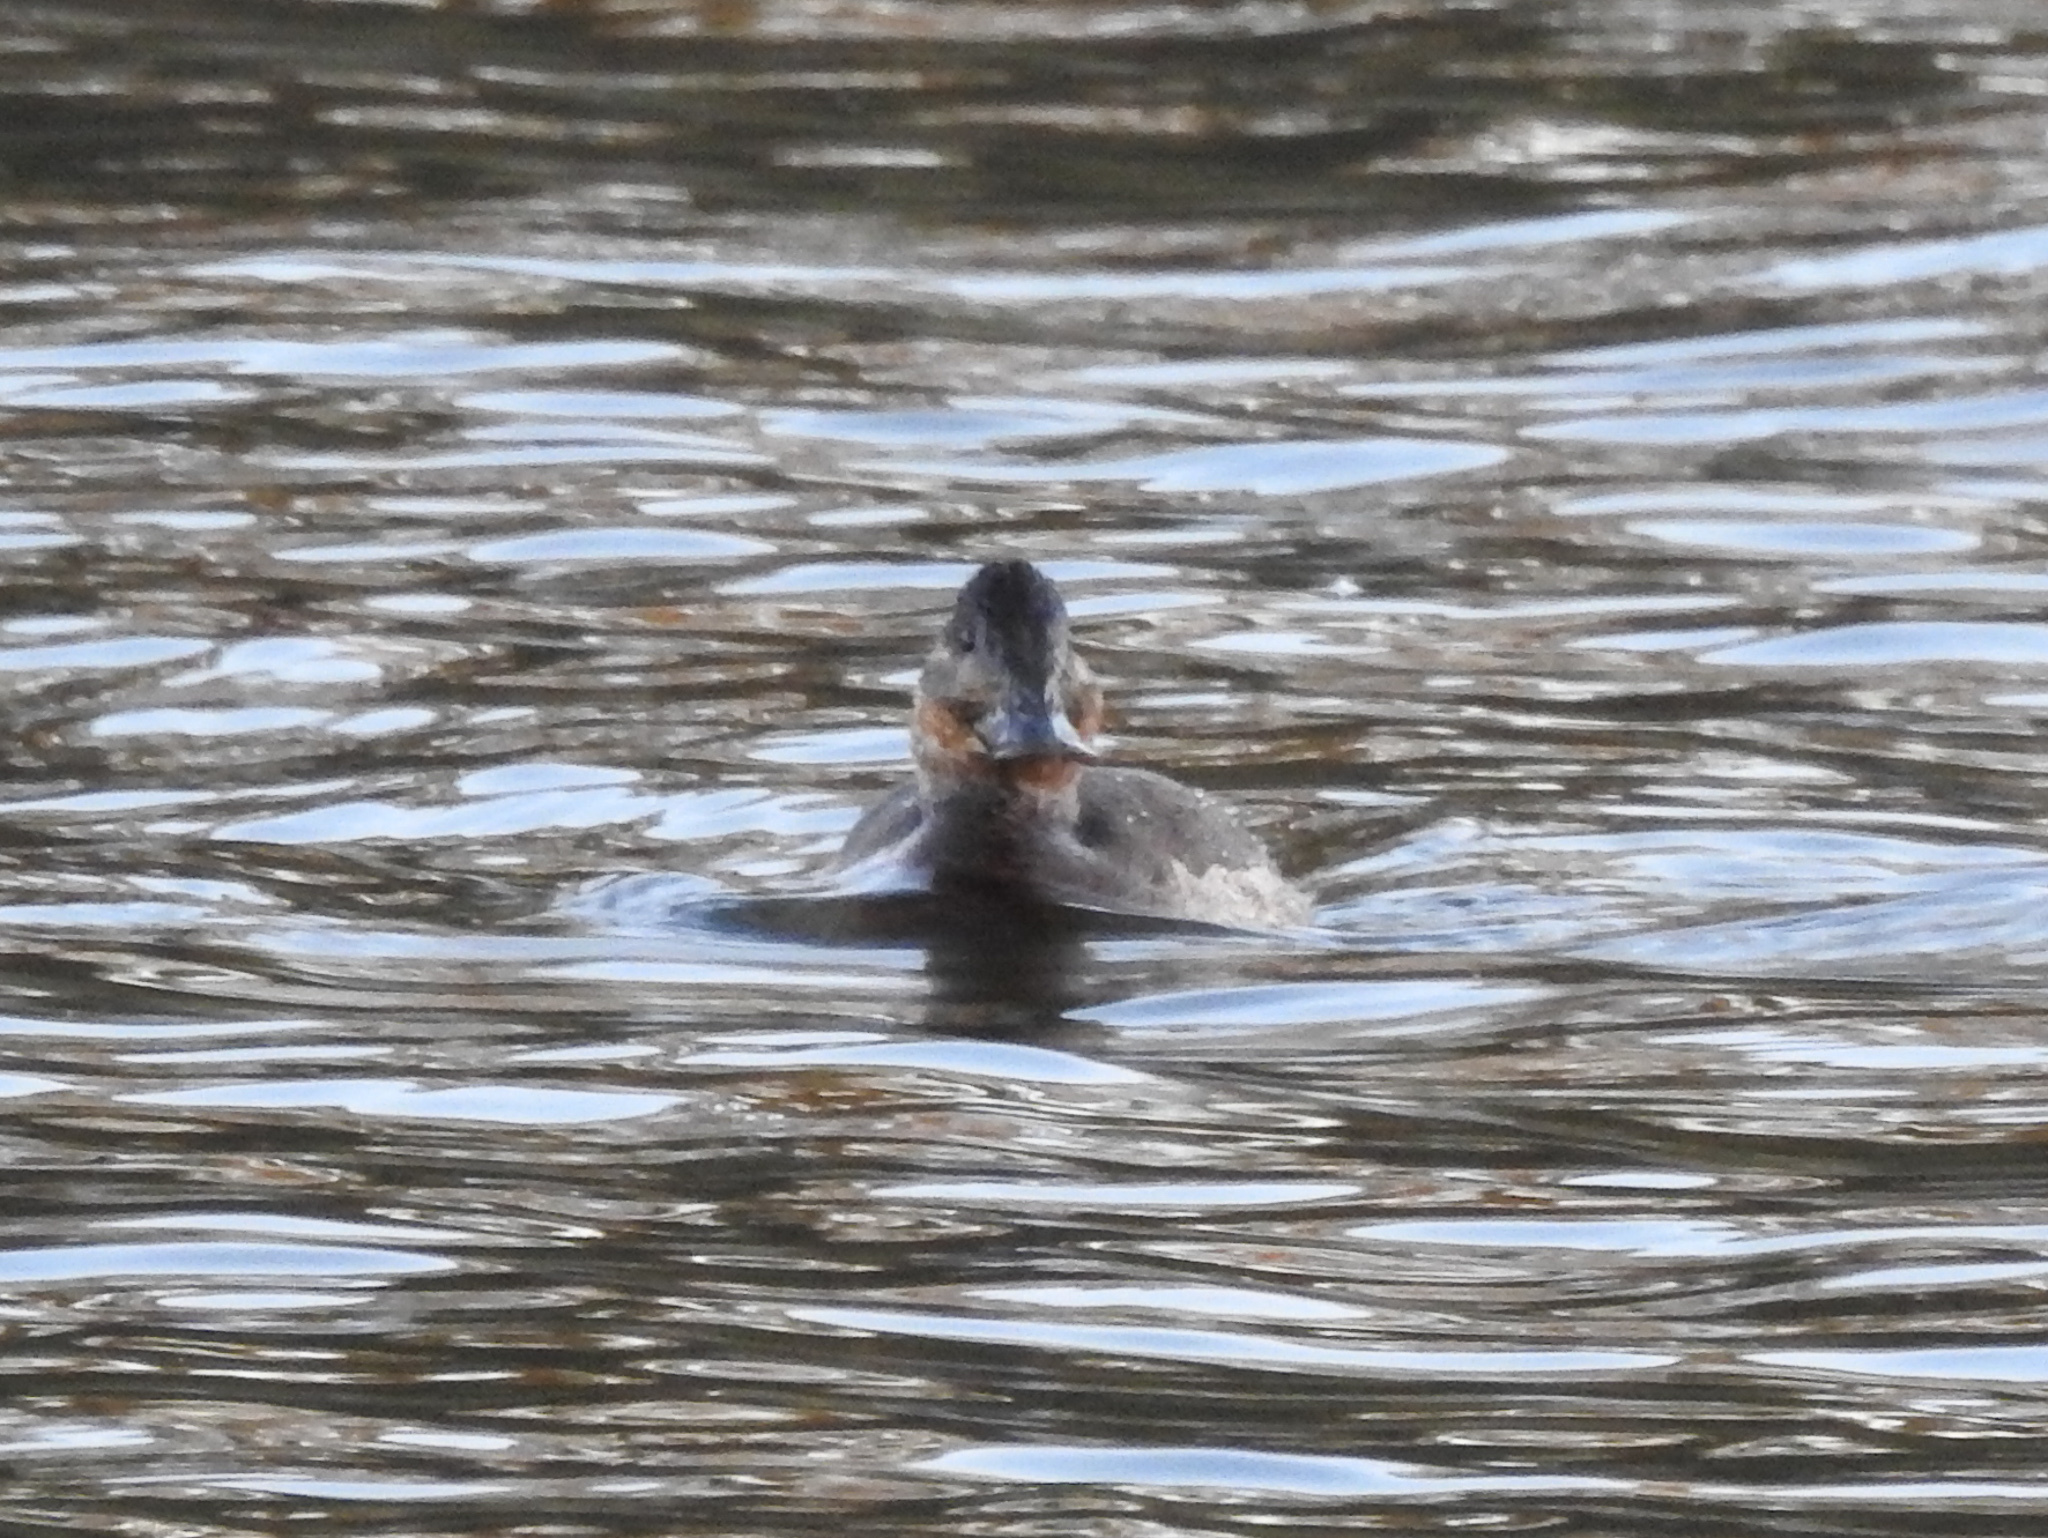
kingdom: Animalia
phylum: Chordata
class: Aves
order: Anseriformes
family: Anatidae
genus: Oxyura
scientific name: Oxyura jamaicensis
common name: Ruddy duck
